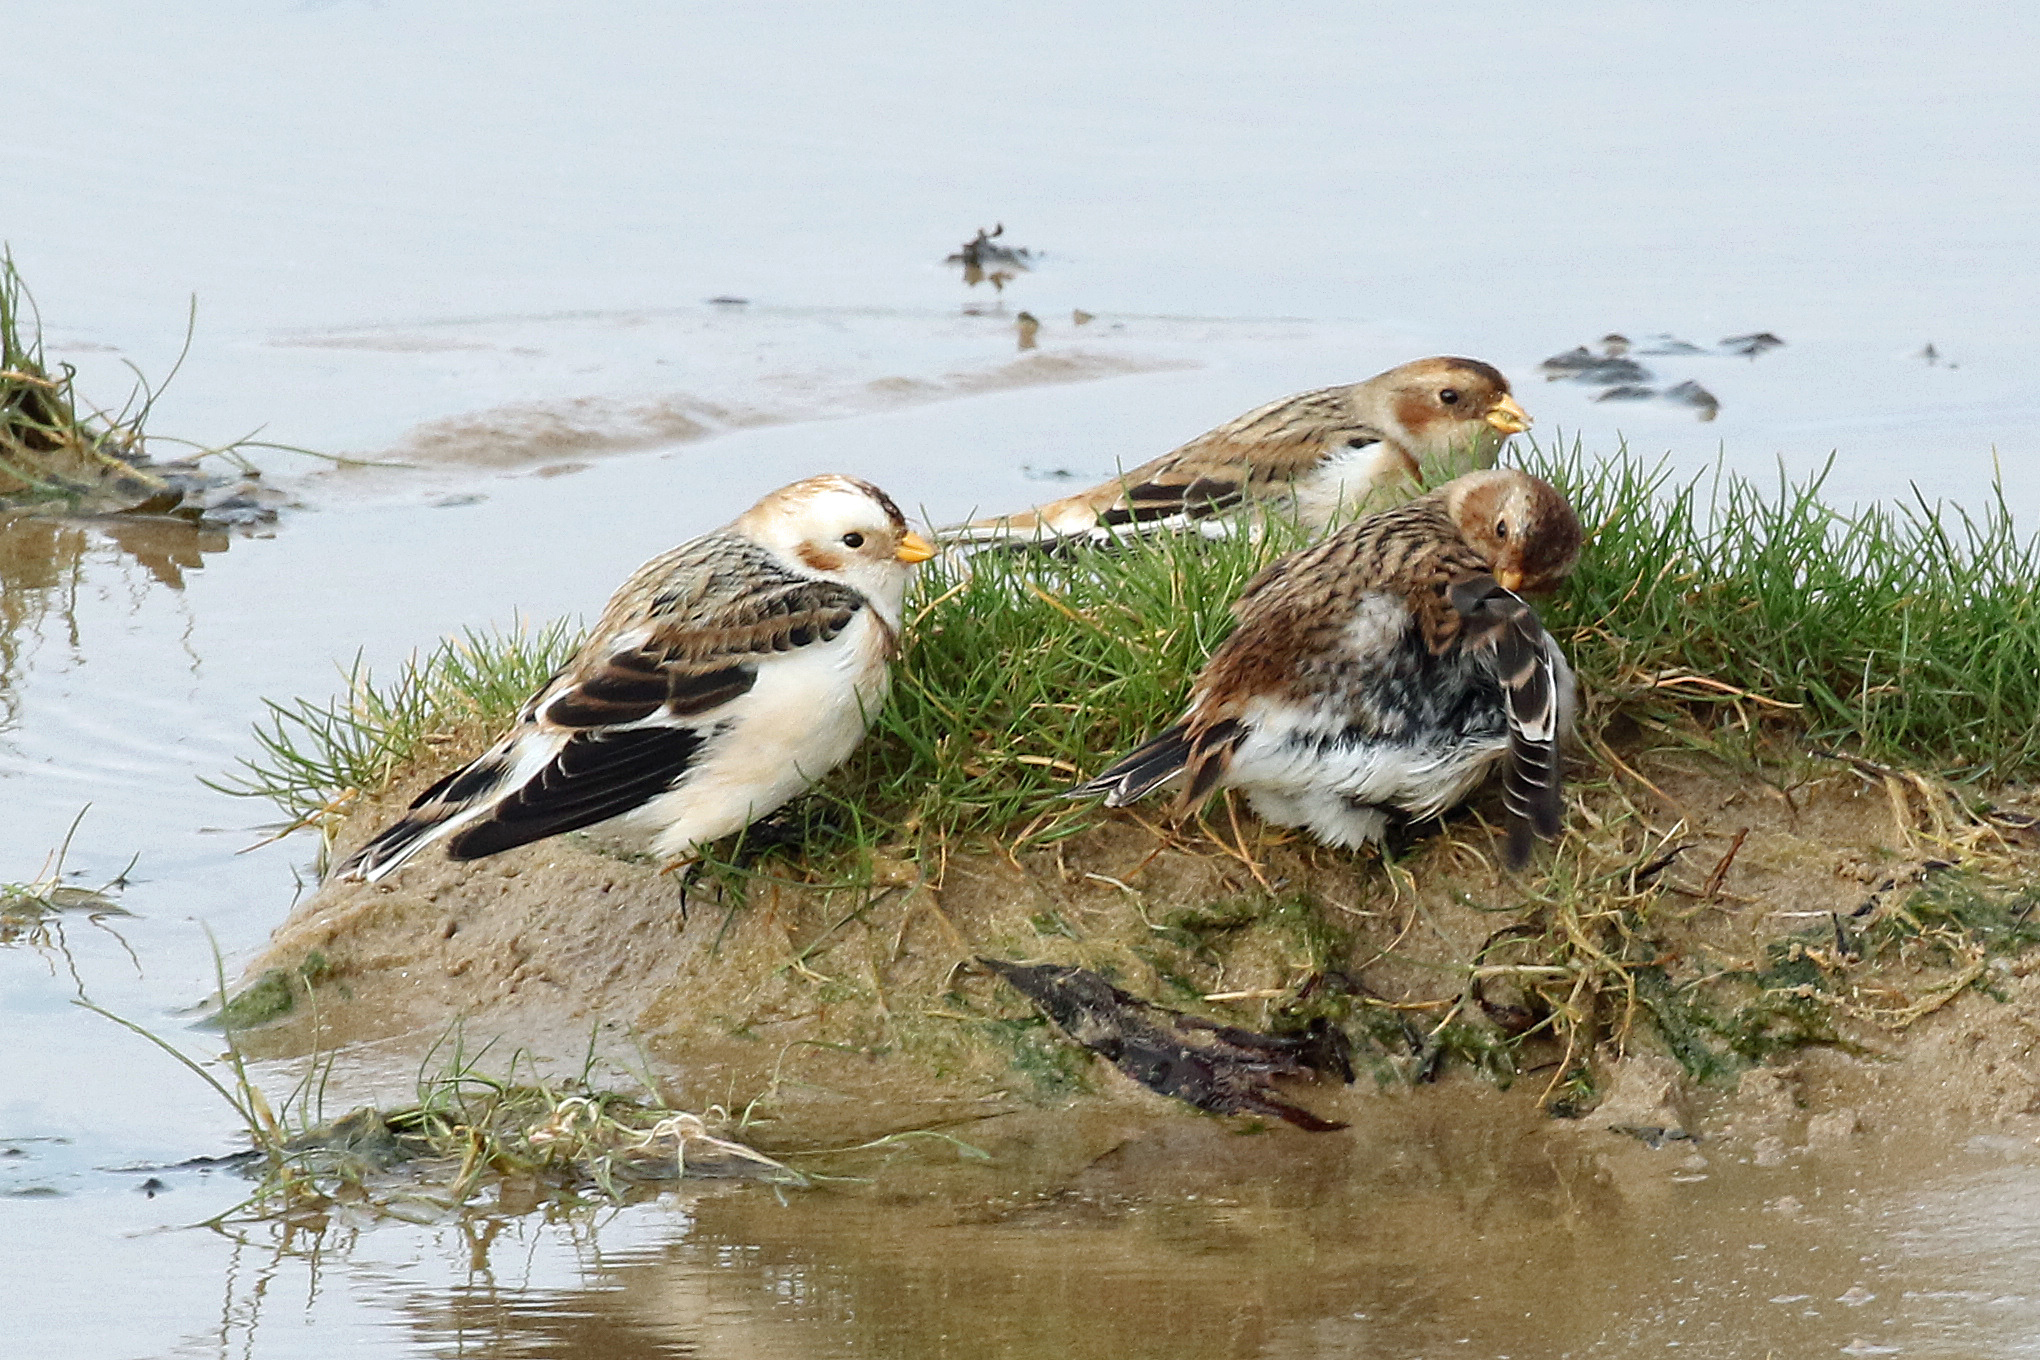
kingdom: Animalia
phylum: Chordata
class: Aves
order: Passeriformes
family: Calcariidae
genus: Plectrophenax
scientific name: Plectrophenax nivalis
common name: Snow bunting
